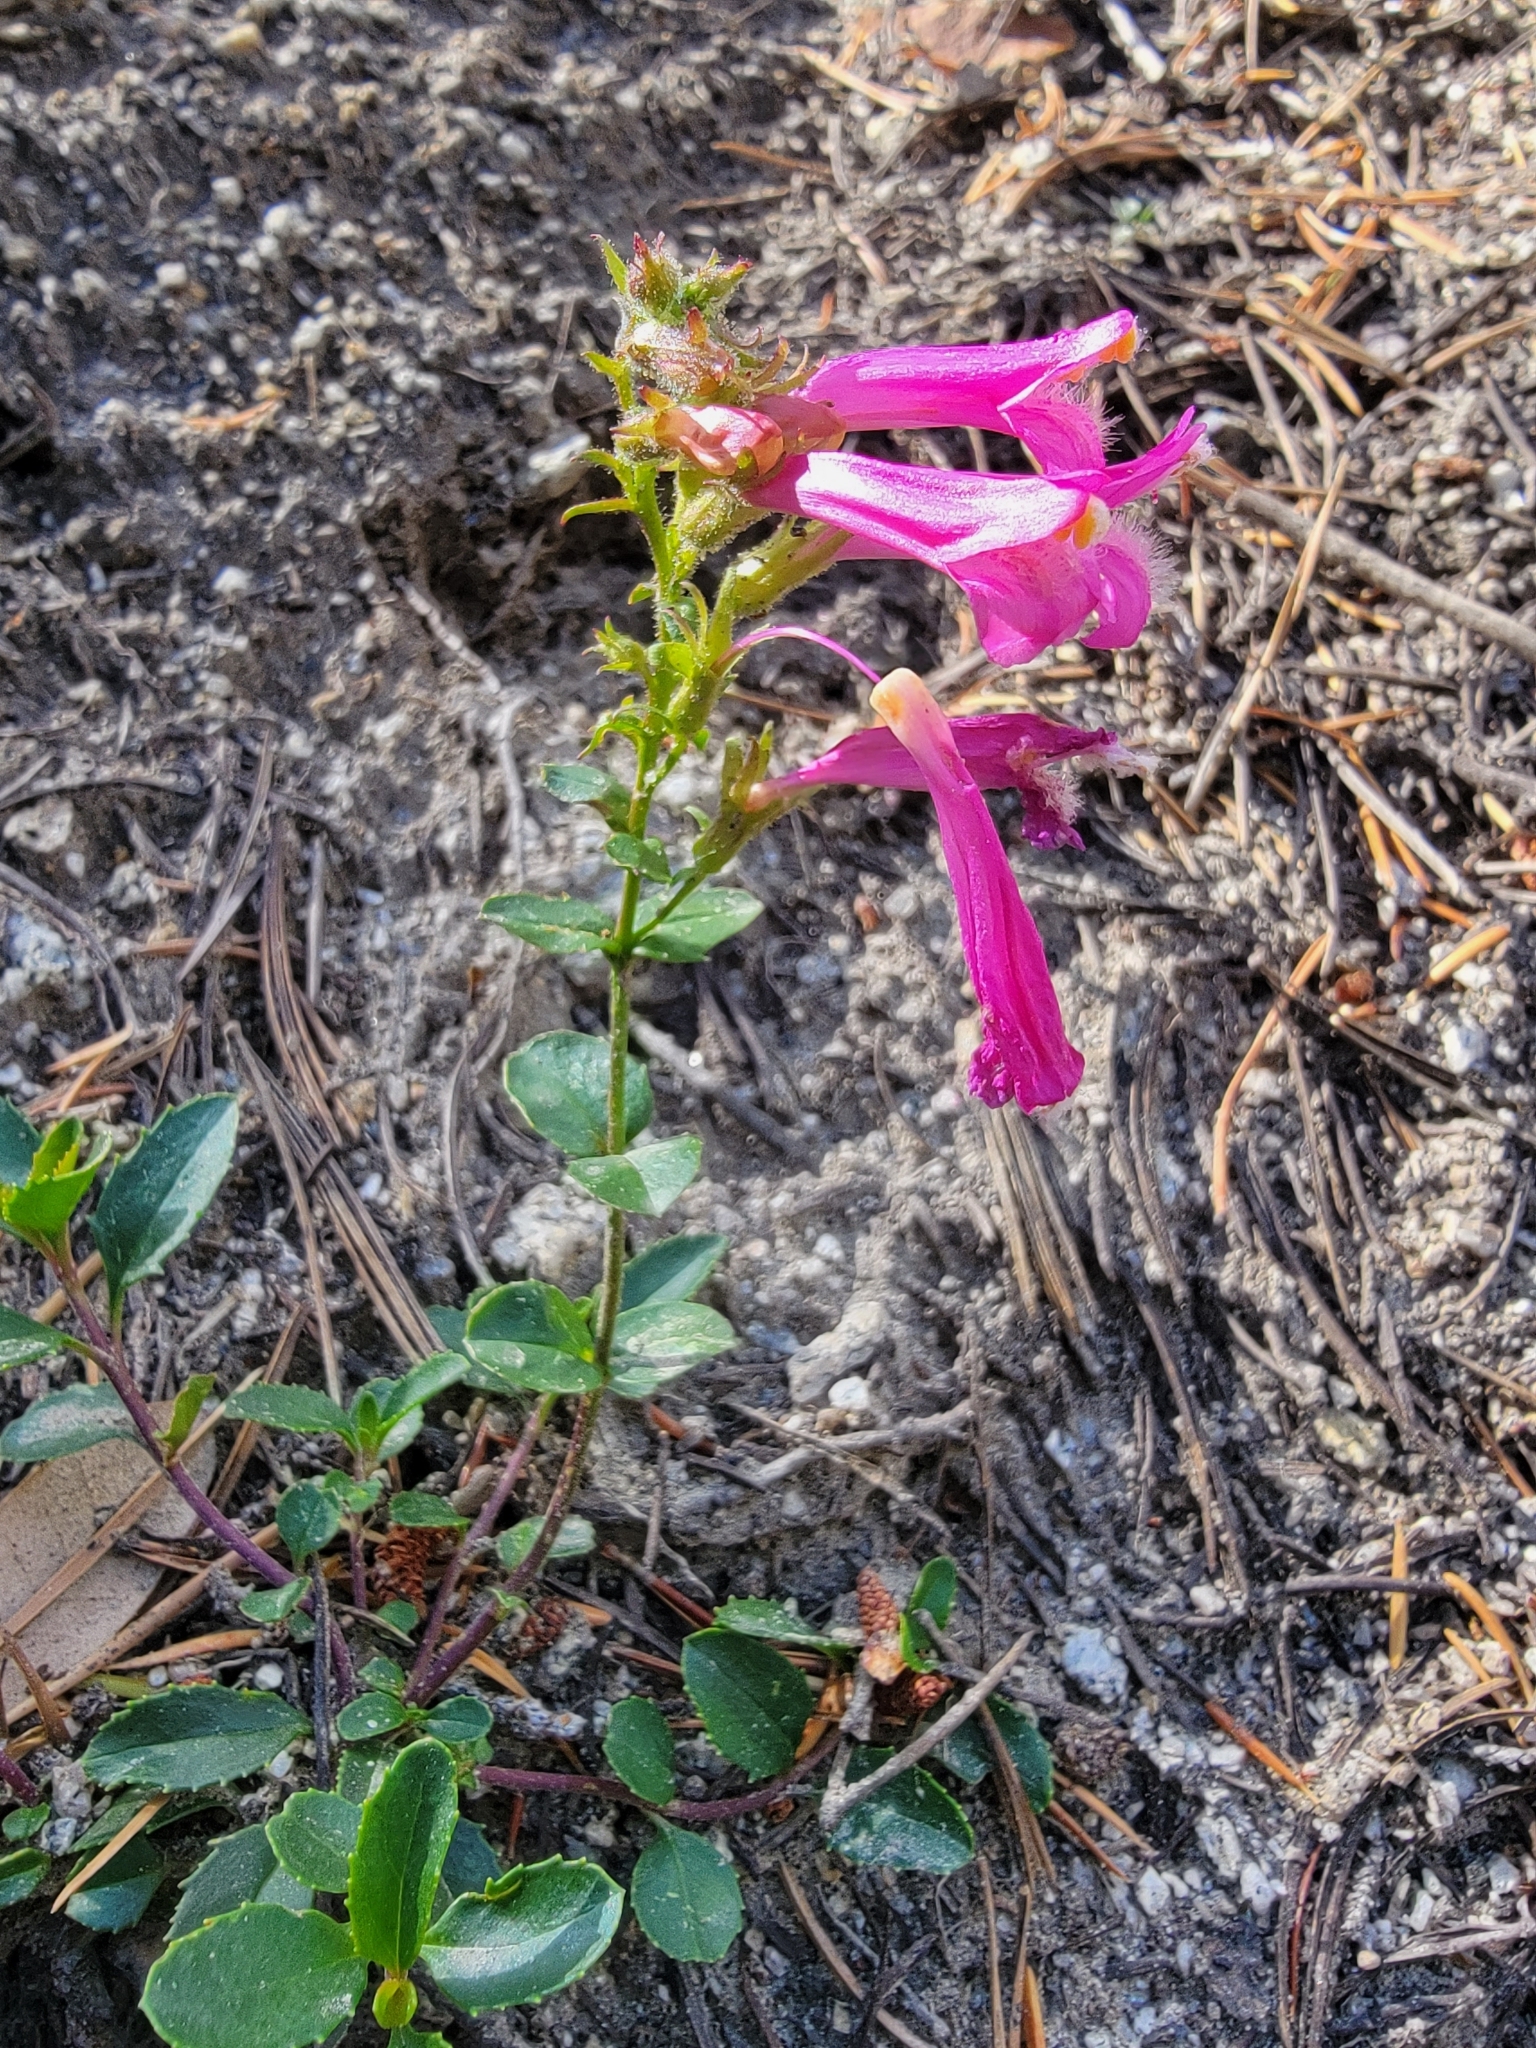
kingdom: Plantae
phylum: Tracheophyta
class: Magnoliopsida
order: Lamiales
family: Plantaginaceae
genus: Penstemon
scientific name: Penstemon newberryi
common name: Mountain-pride
